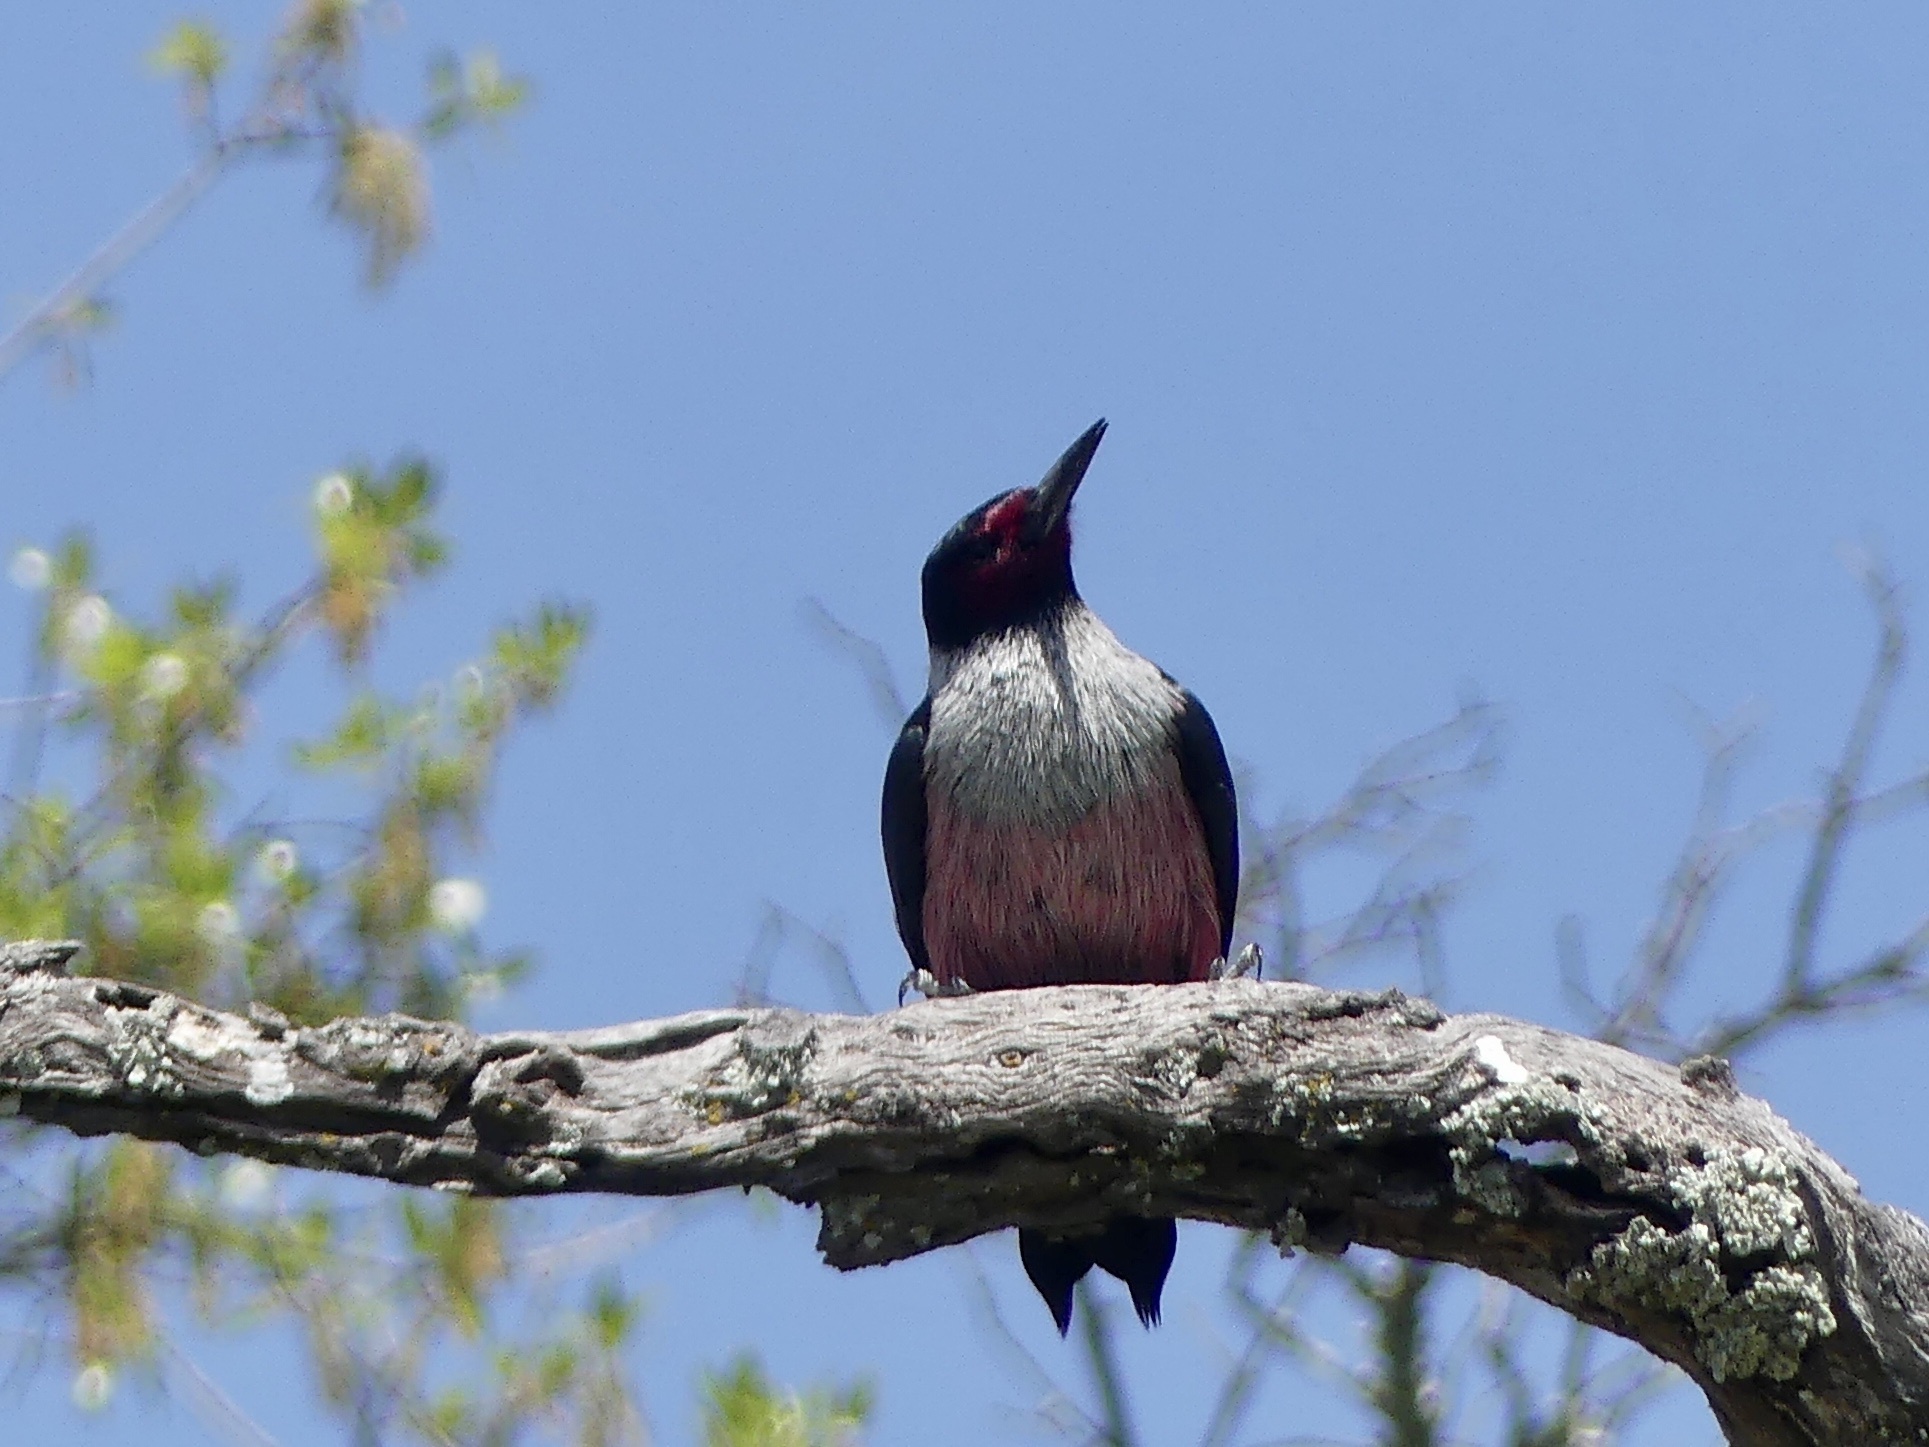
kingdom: Animalia
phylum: Chordata
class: Aves
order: Piciformes
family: Picidae
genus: Melanerpes
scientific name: Melanerpes lewis
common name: Lewis's woodpecker
